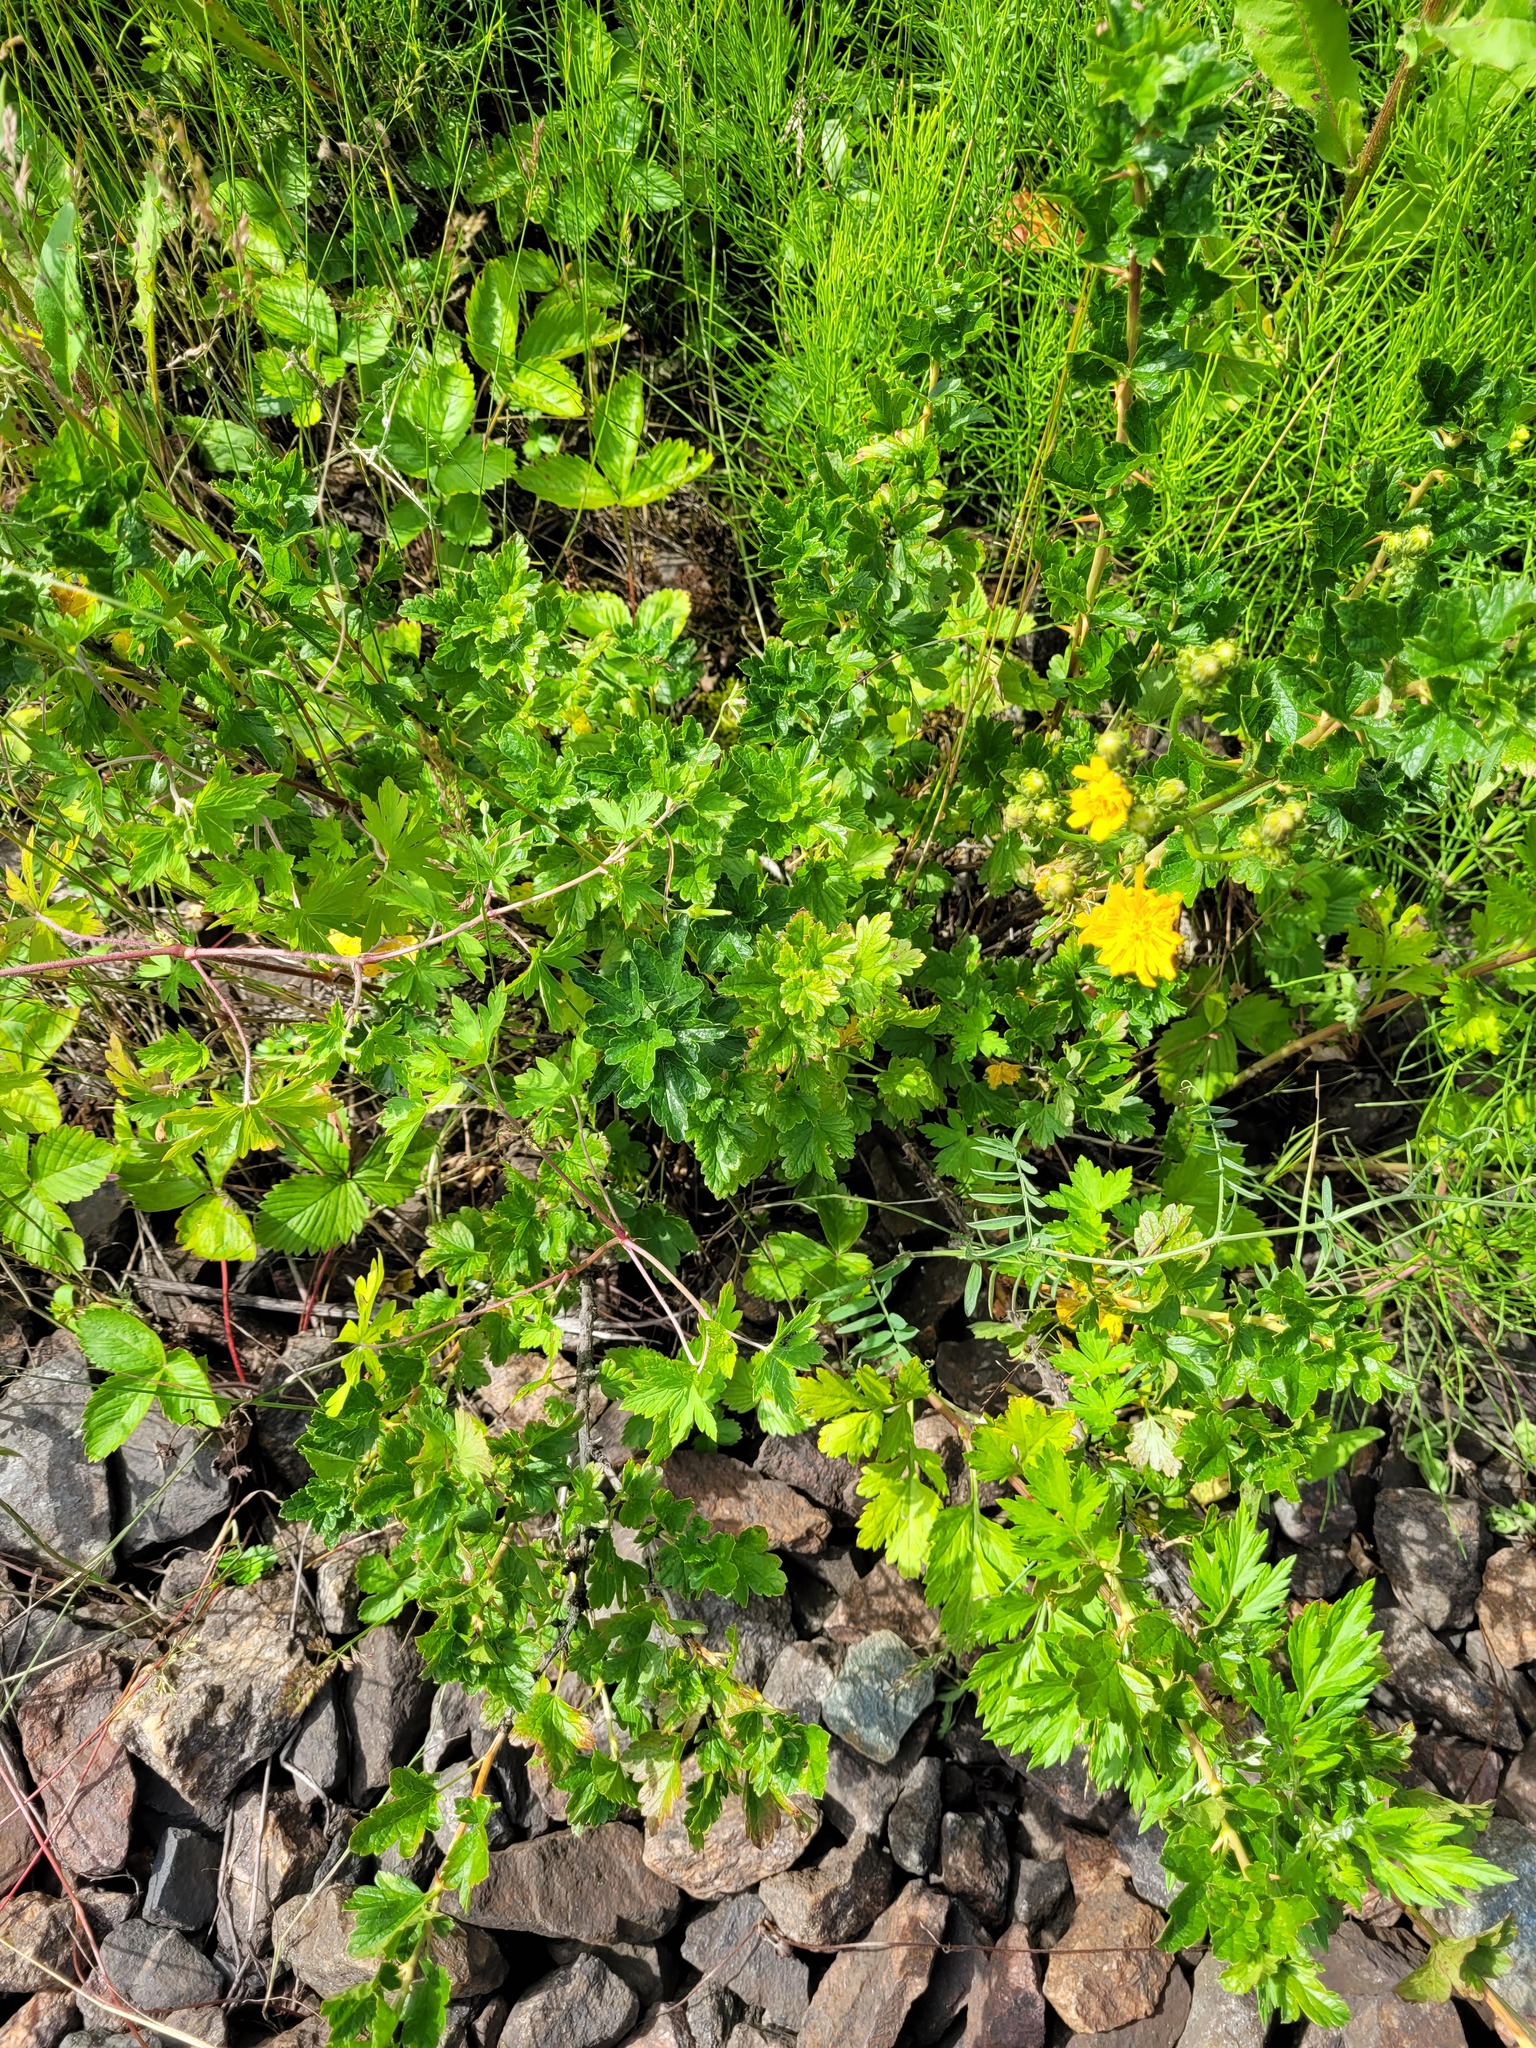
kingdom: Plantae
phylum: Tracheophyta
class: Magnoliopsida
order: Saxifragales
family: Grossulariaceae
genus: Ribes
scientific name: Ribes uva-crispa
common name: Gooseberry
